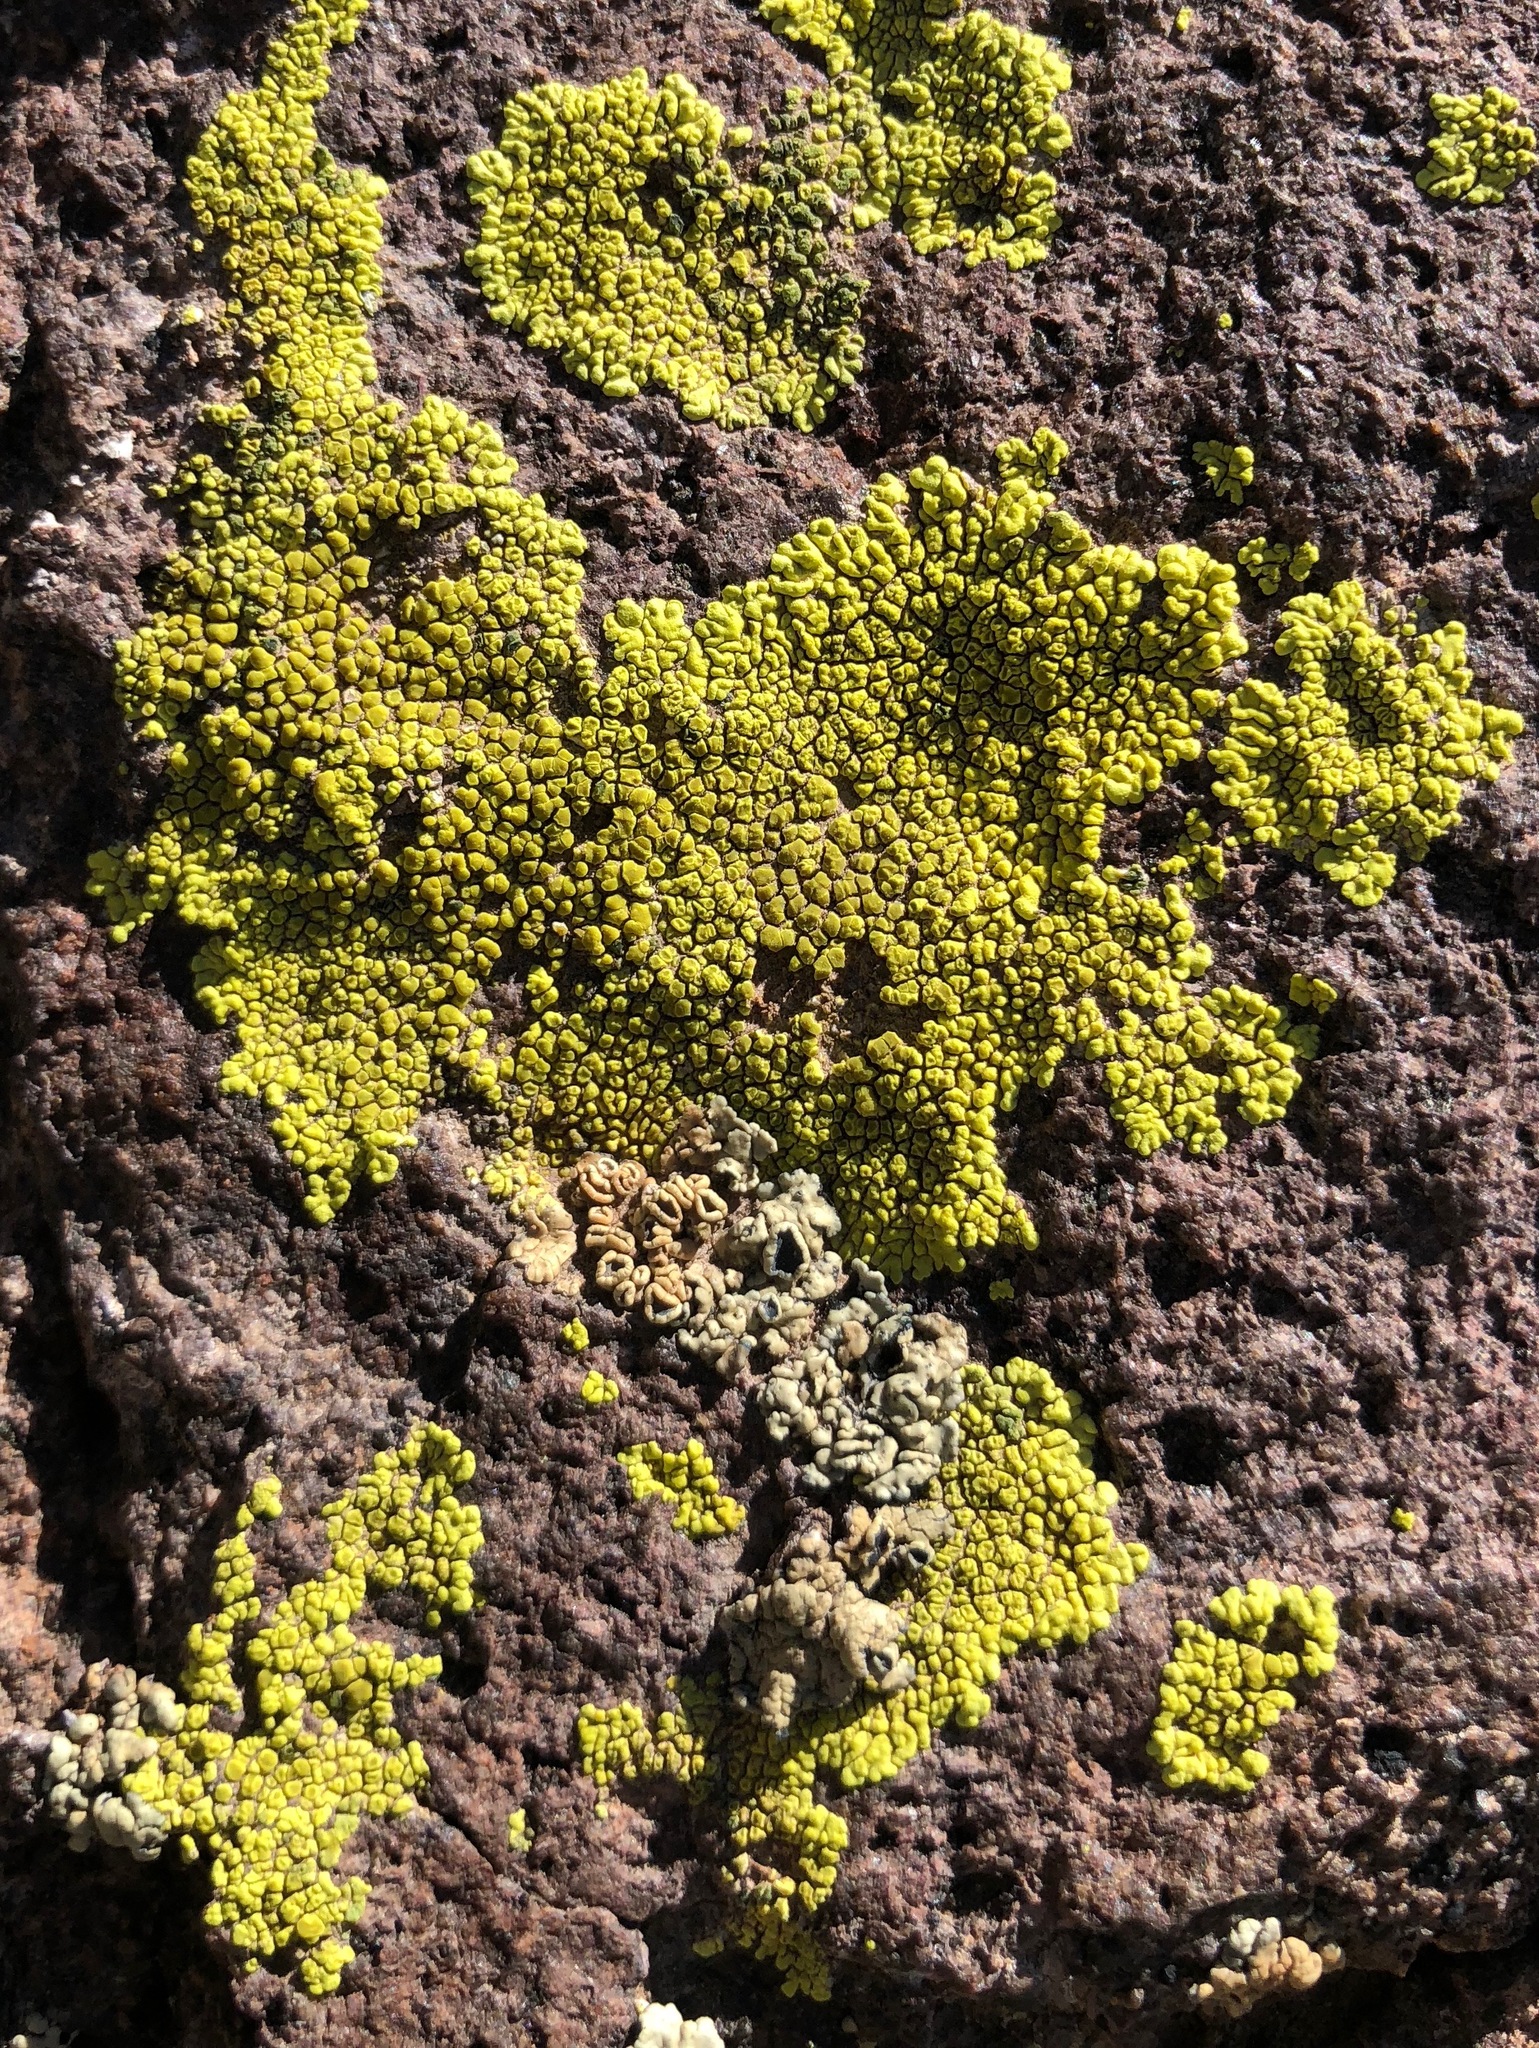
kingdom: Fungi
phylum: Ascomycota
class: Lecanoromycetes
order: Acarosporales
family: Acarosporaceae
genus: Pleopsidium
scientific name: Pleopsidium oxytonum
